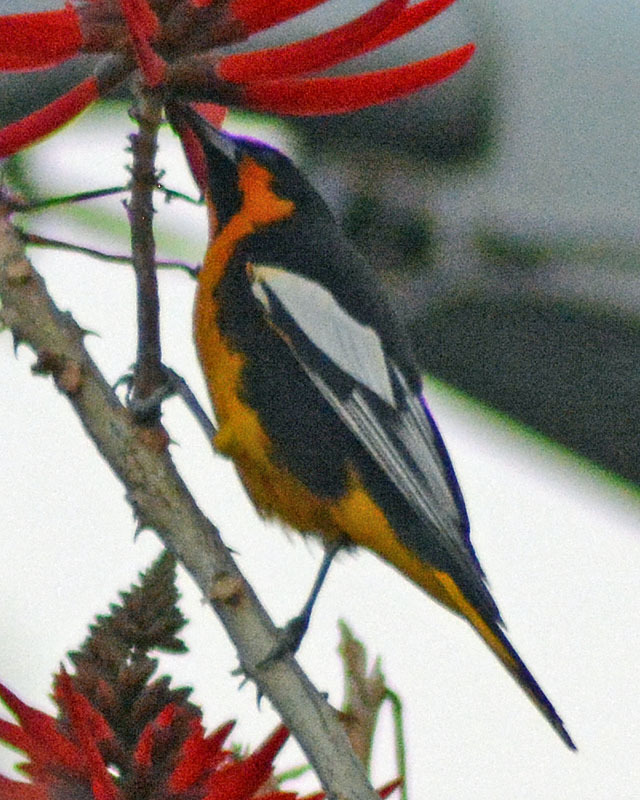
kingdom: Animalia
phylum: Chordata
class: Aves
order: Passeriformes
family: Icteridae
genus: Icterus
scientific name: Icterus abeillei
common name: Black-backed oriole
